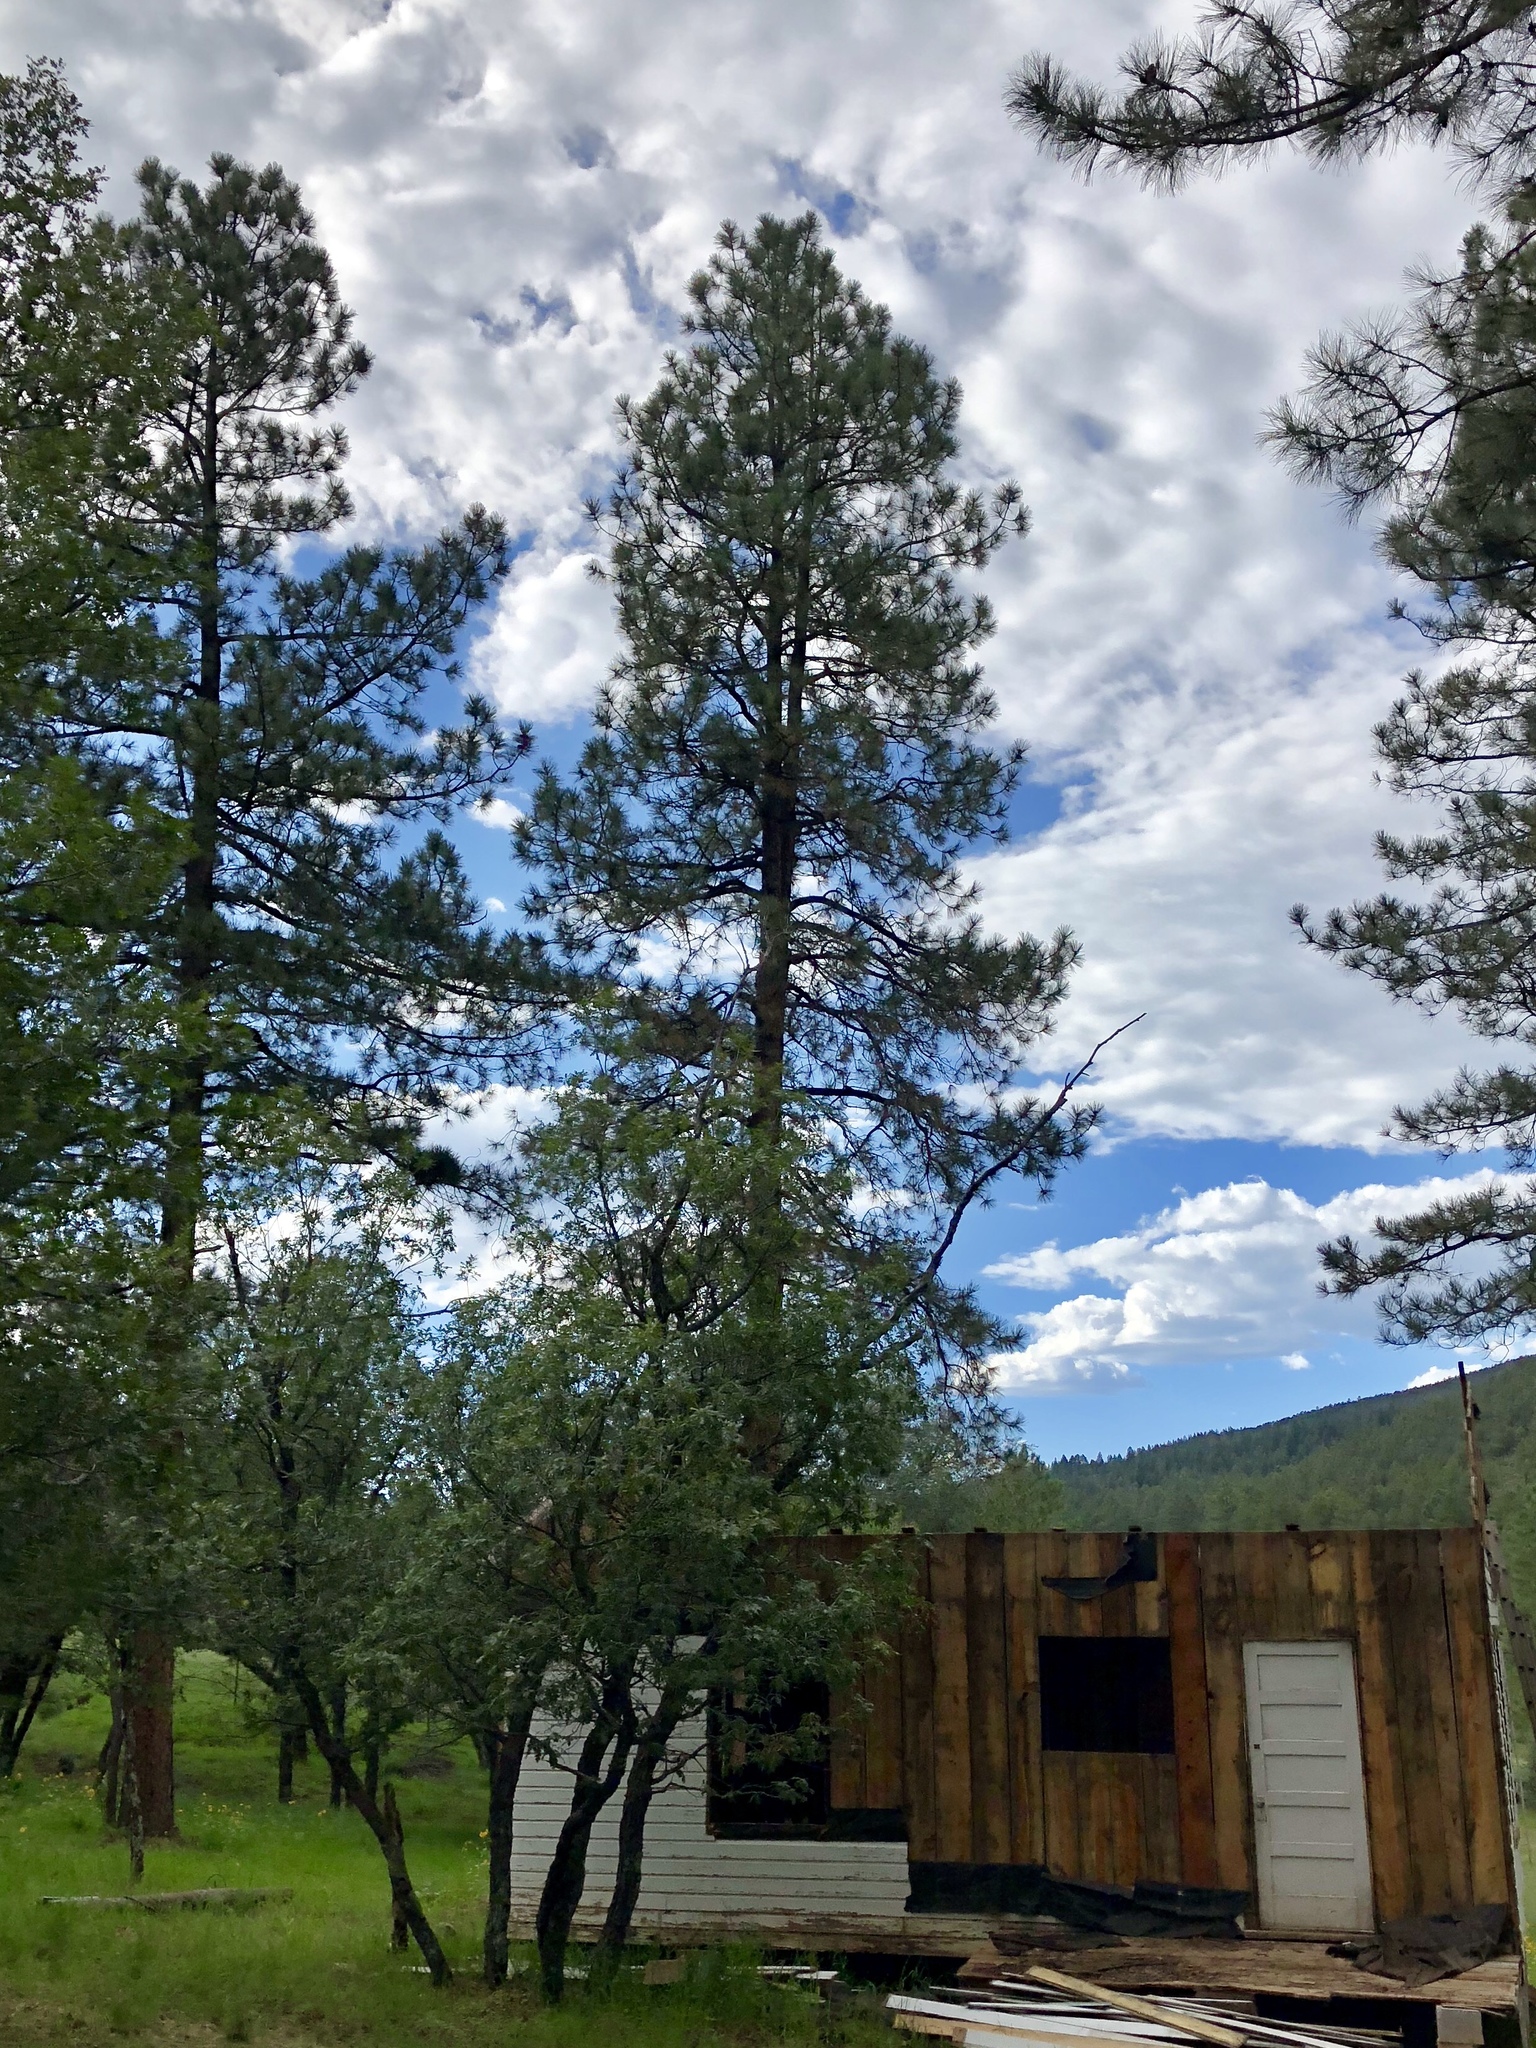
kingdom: Plantae
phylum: Tracheophyta
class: Pinopsida
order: Pinales
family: Pinaceae
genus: Pinus
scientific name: Pinus ponderosa
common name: Western yellow-pine
